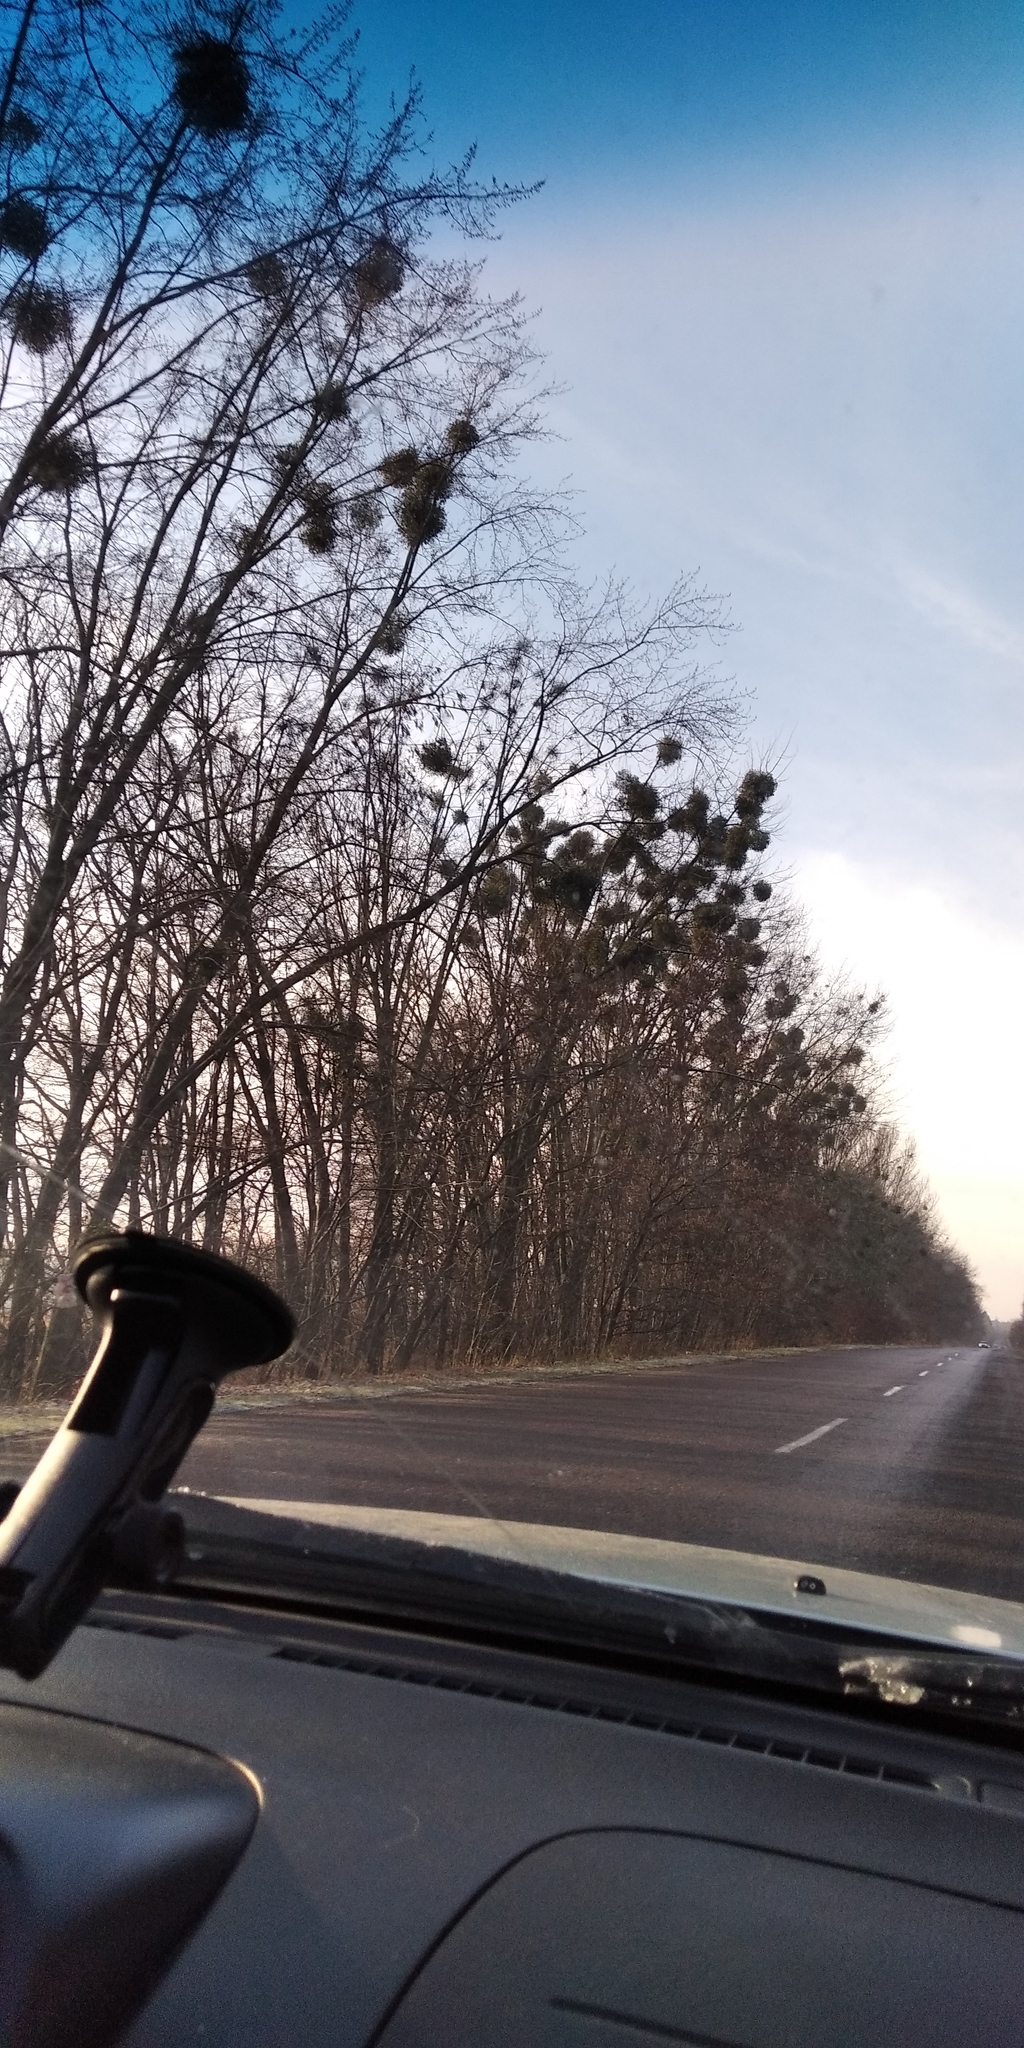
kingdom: Plantae
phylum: Tracheophyta
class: Magnoliopsida
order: Santalales
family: Viscaceae
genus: Viscum
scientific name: Viscum album
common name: Mistletoe
